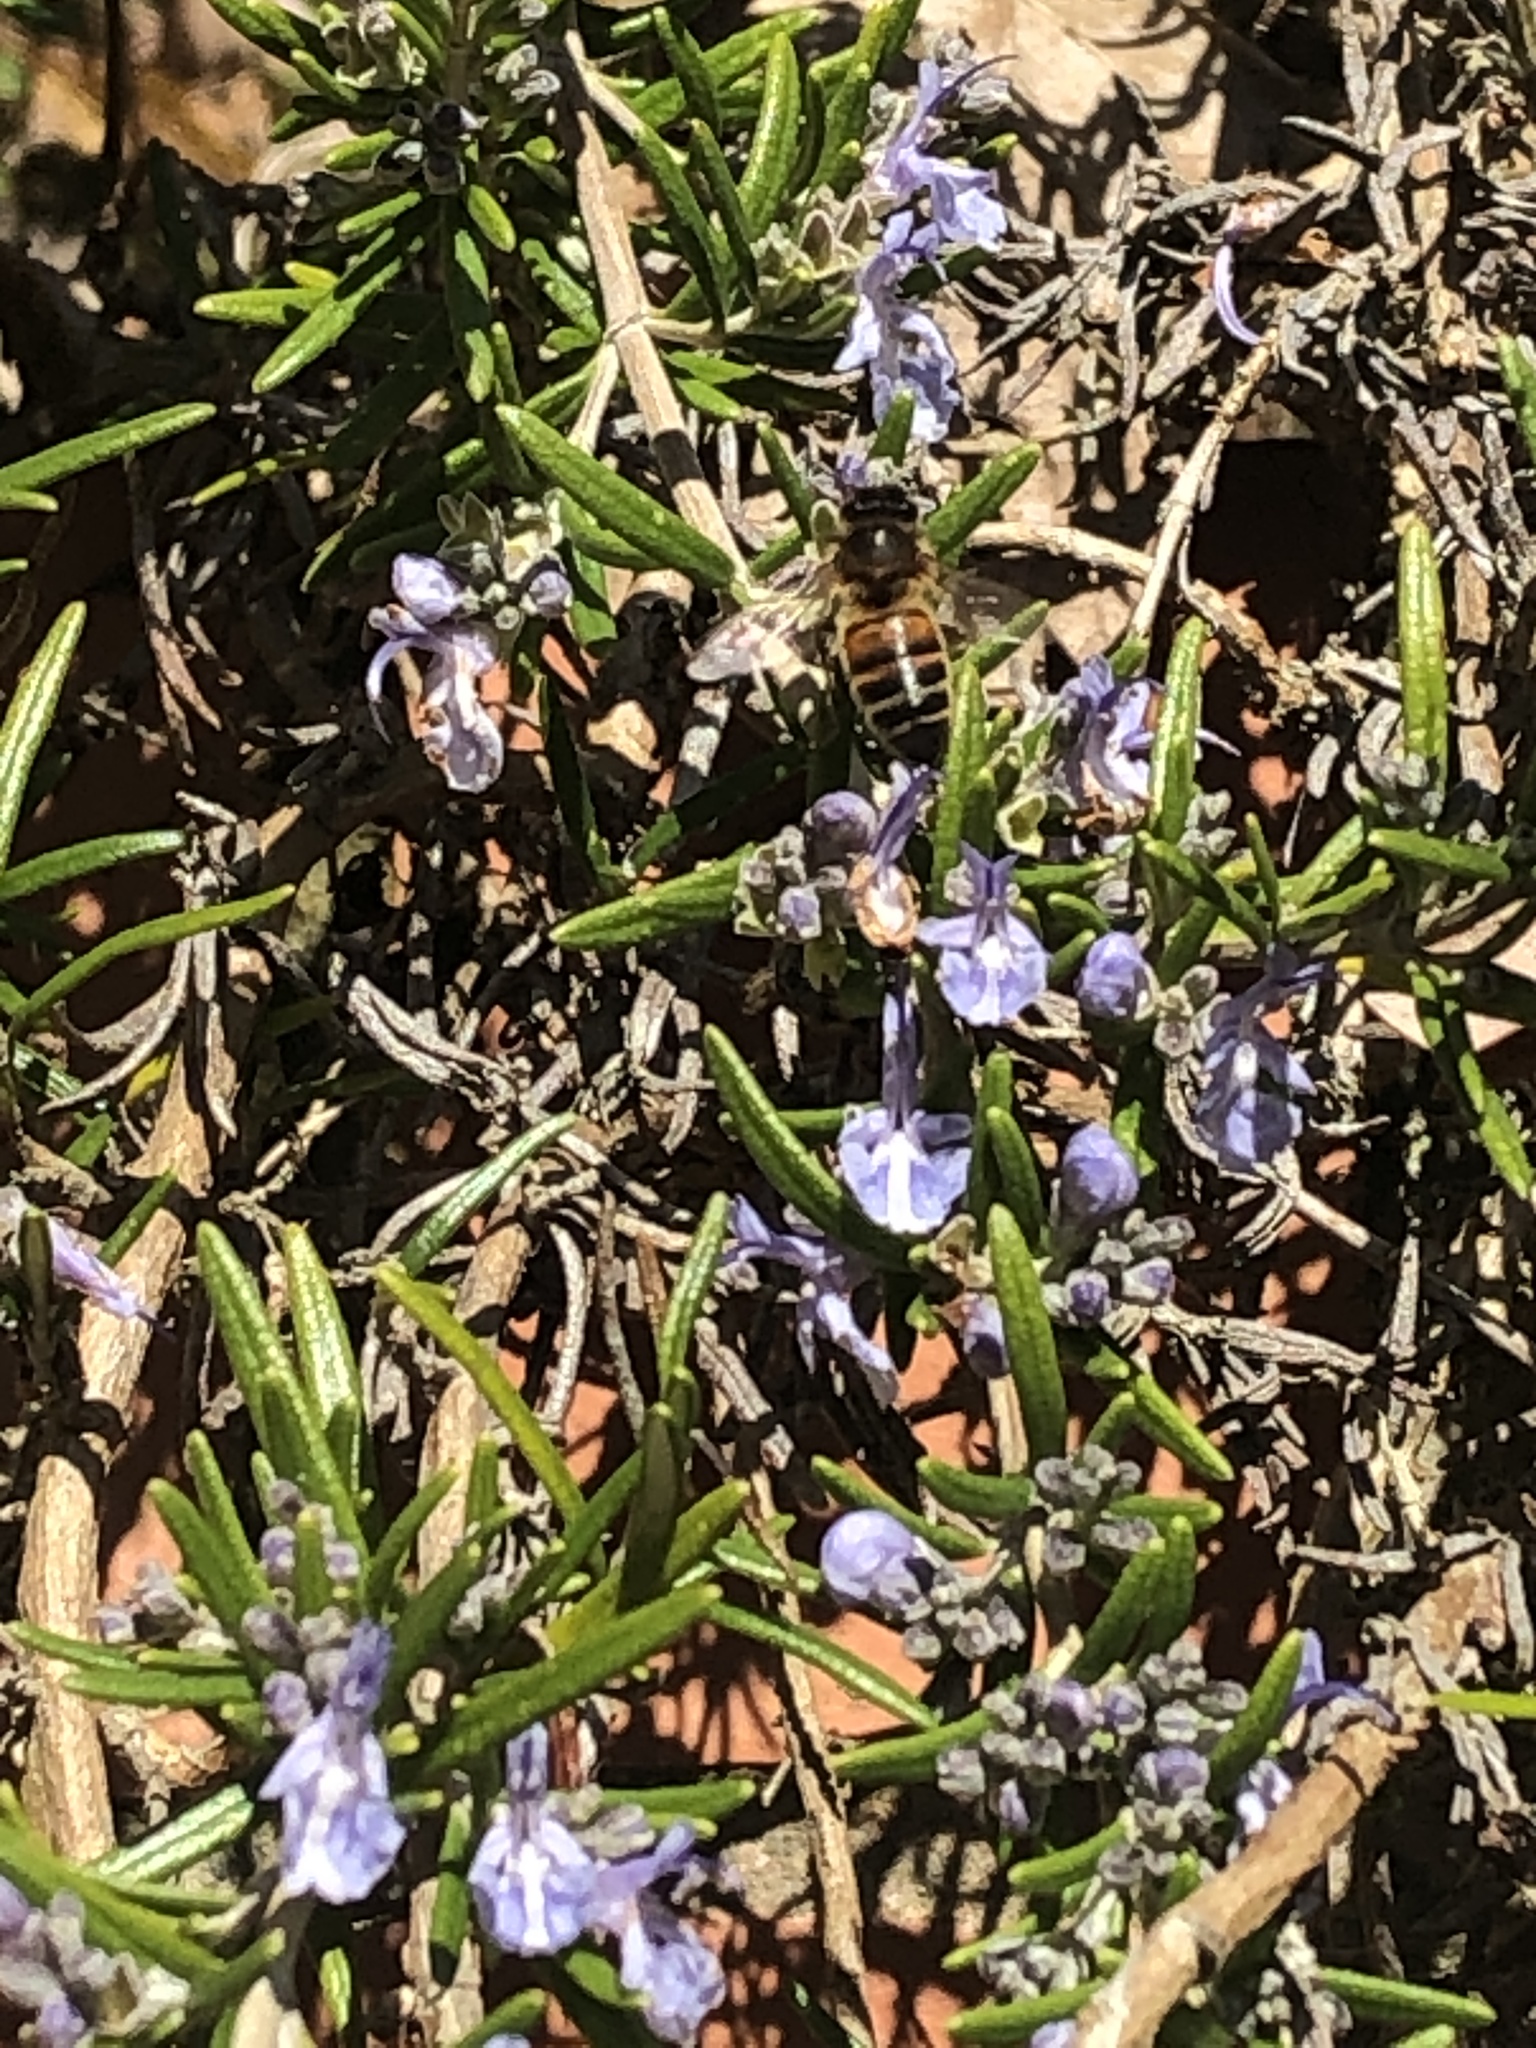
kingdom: Animalia
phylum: Arthropoda
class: Insecta
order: Hymenoptera
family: Apidae
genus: Apis
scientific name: Apis mellifera
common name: Honey bee
